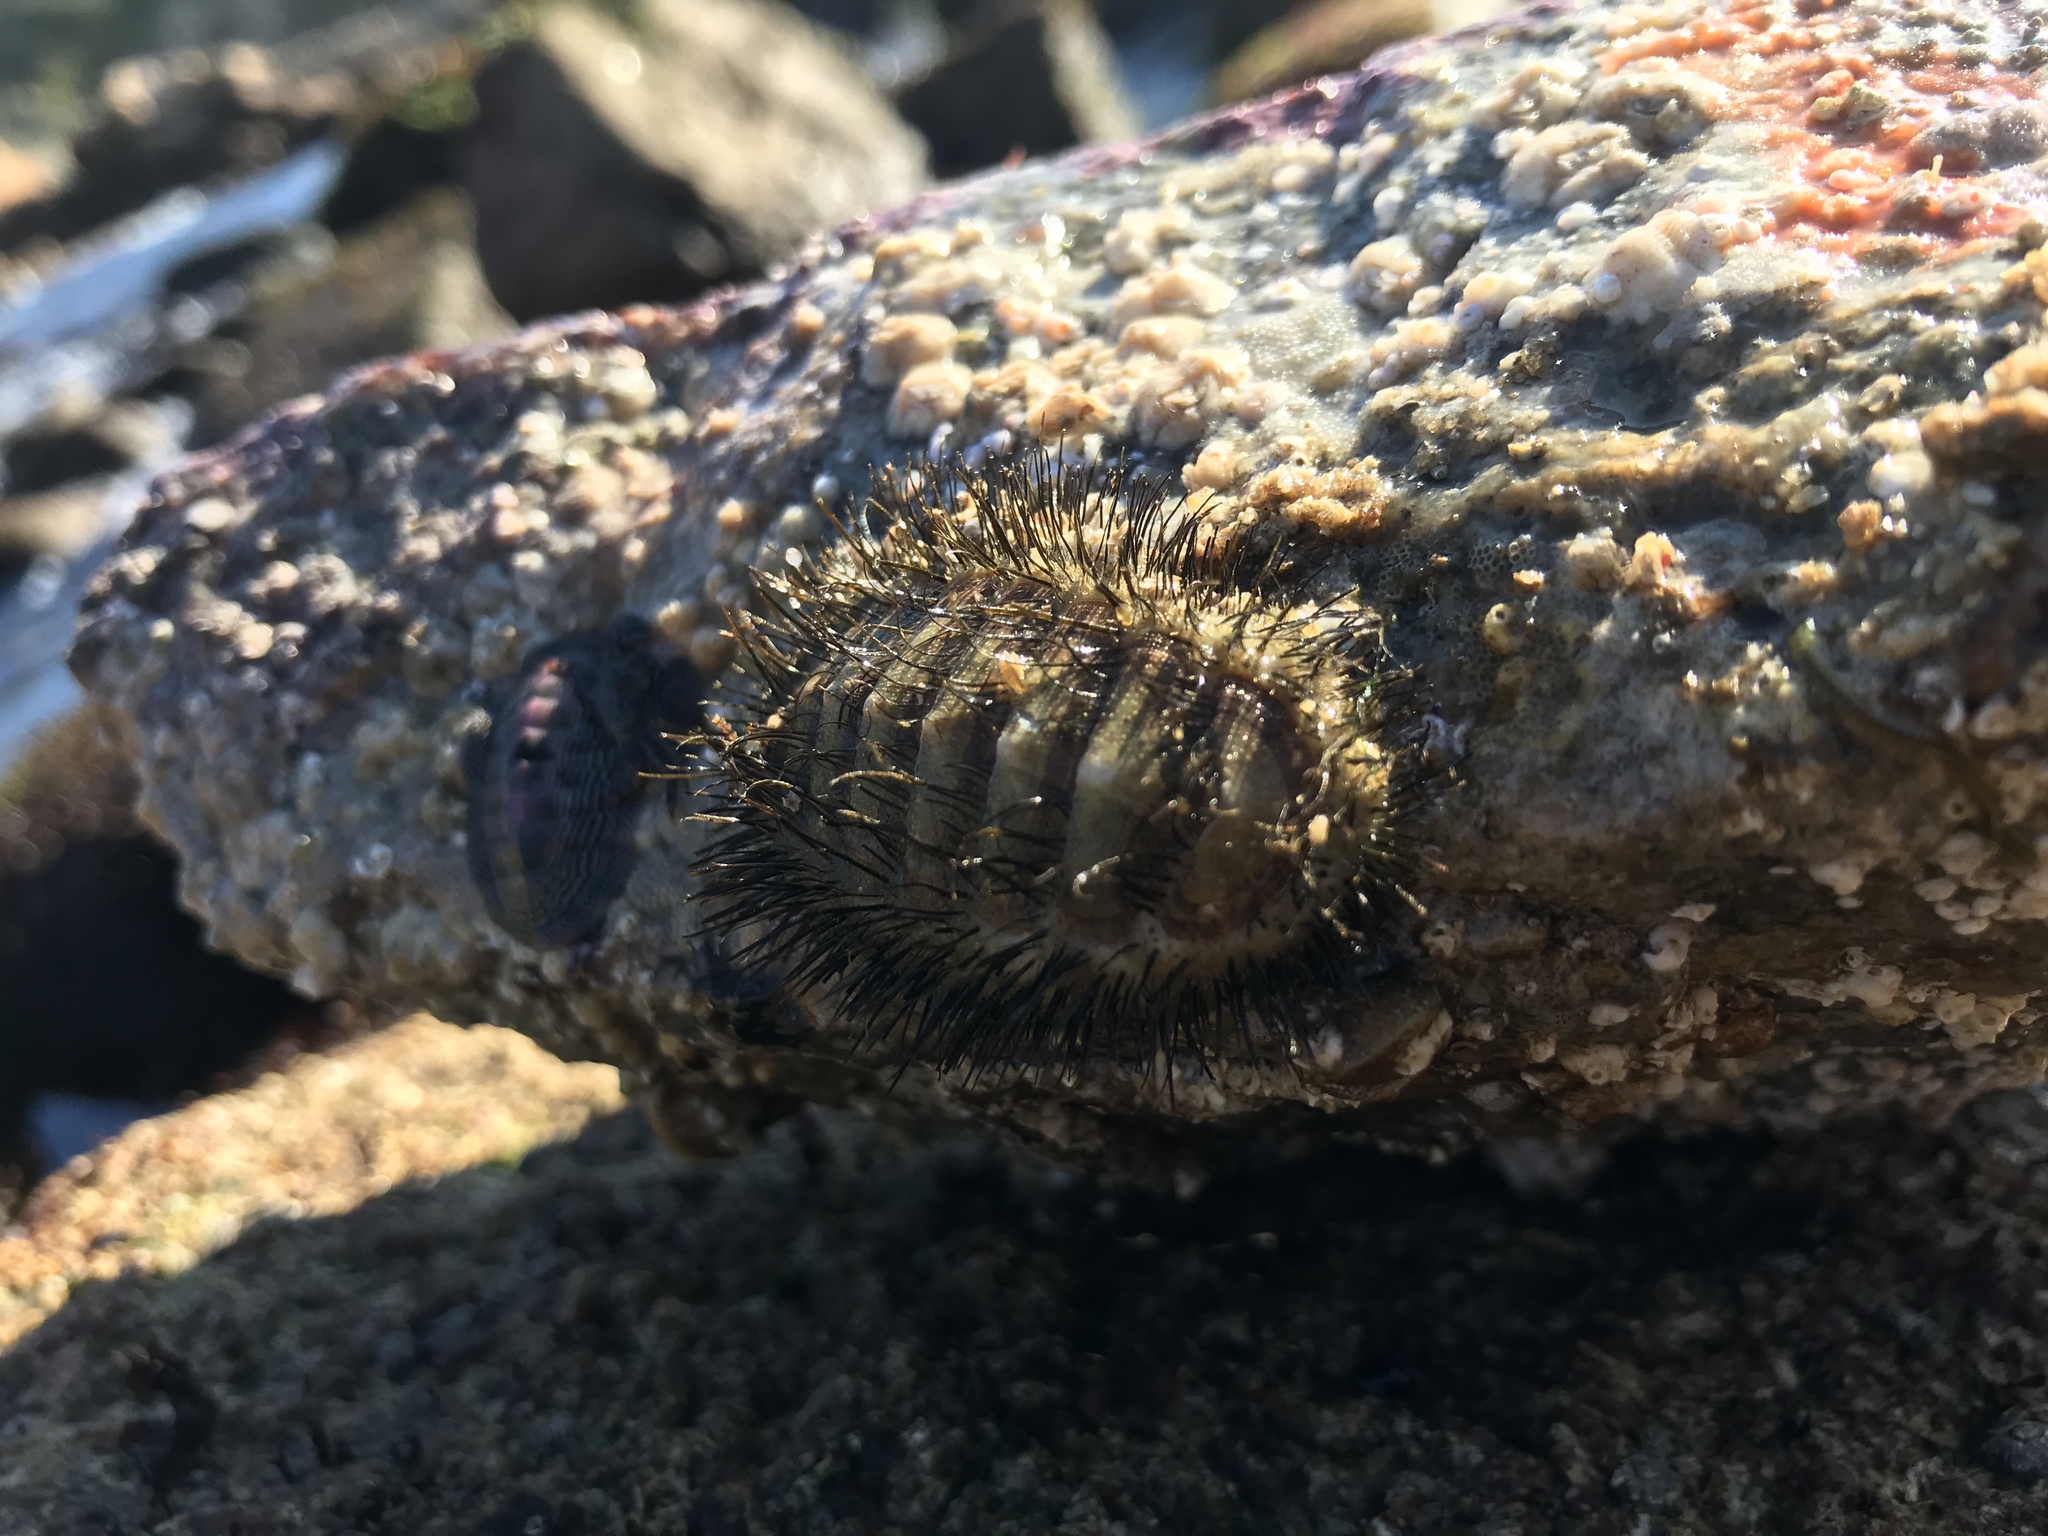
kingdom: Animalia
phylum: Mollusca
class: Polyplacophora
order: Chitonida
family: Chaetopleuridae
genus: Chaetopleura
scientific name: Chaetopleura peruviana
